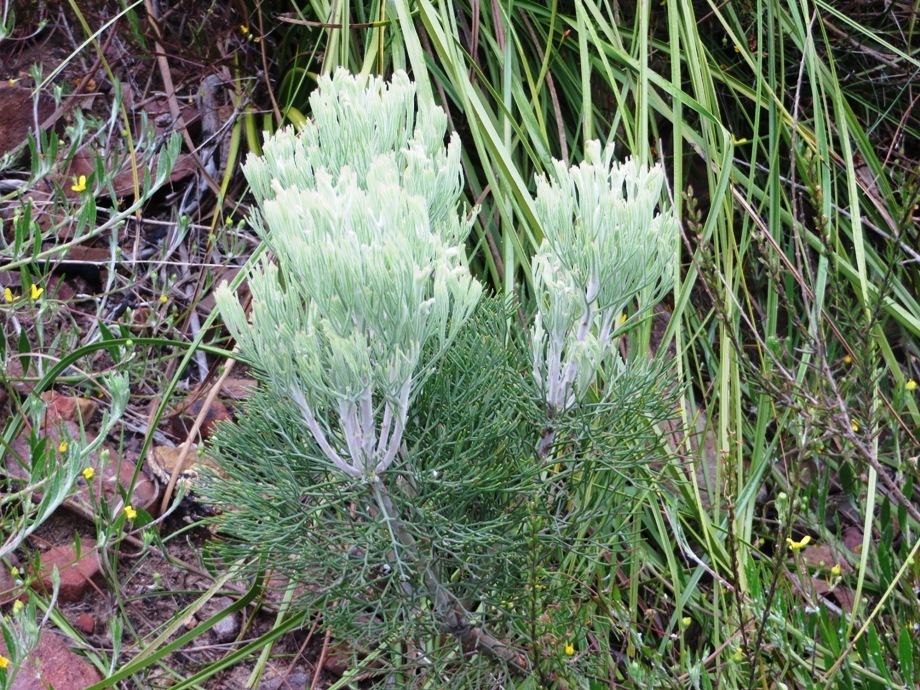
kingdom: Plantae
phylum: Tracheophyta
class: Magnoliopsida
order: Proteales
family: Proteaceae
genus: Paranomus
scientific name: Paranomus spicatus
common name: Kogelberg sceptre
